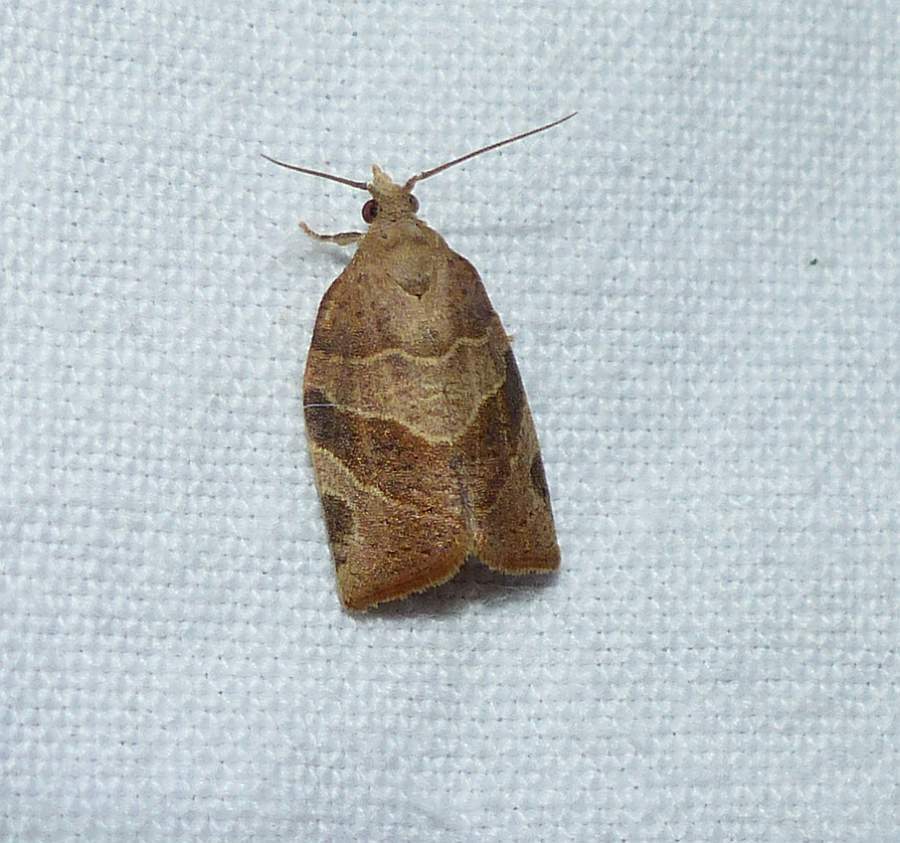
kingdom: Animalia
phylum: Arthropoda
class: Insecta
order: Lepidoptera
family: Tortricidae
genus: Pandemis
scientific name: Pandemis limitata
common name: Three-lined leafroller moth
